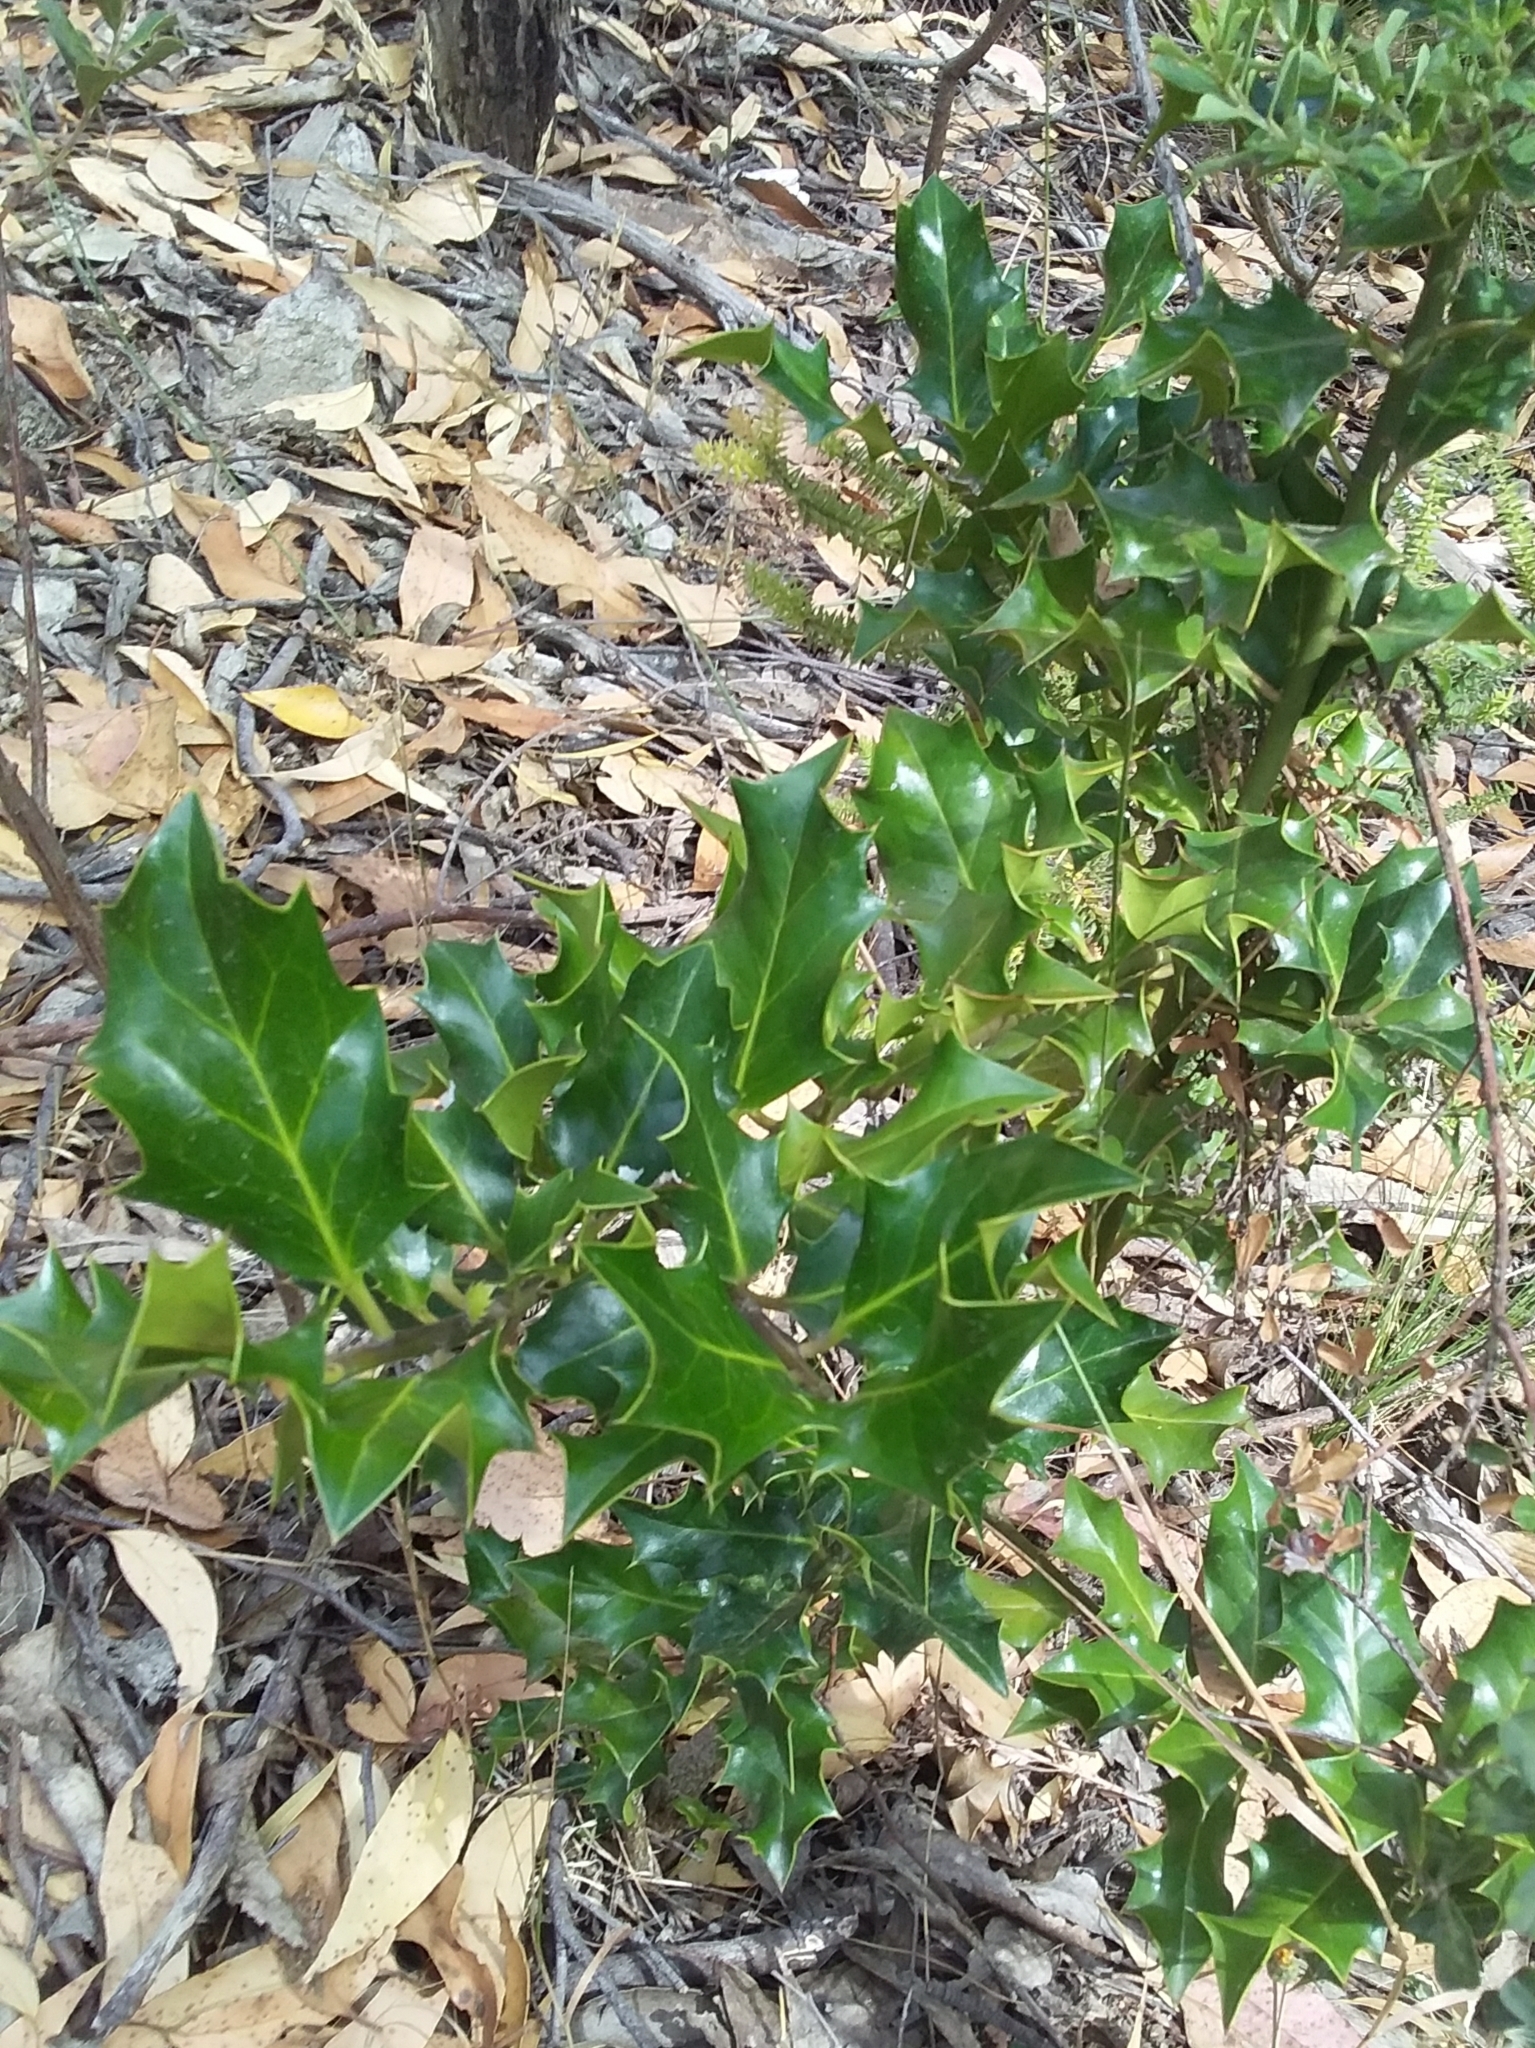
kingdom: Plantae
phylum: Tracheophyta
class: Magnoliopsida
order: Aquifoliales
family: Aquifoliaceae
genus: Ilex
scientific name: Ilex aquifolium
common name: English holly
